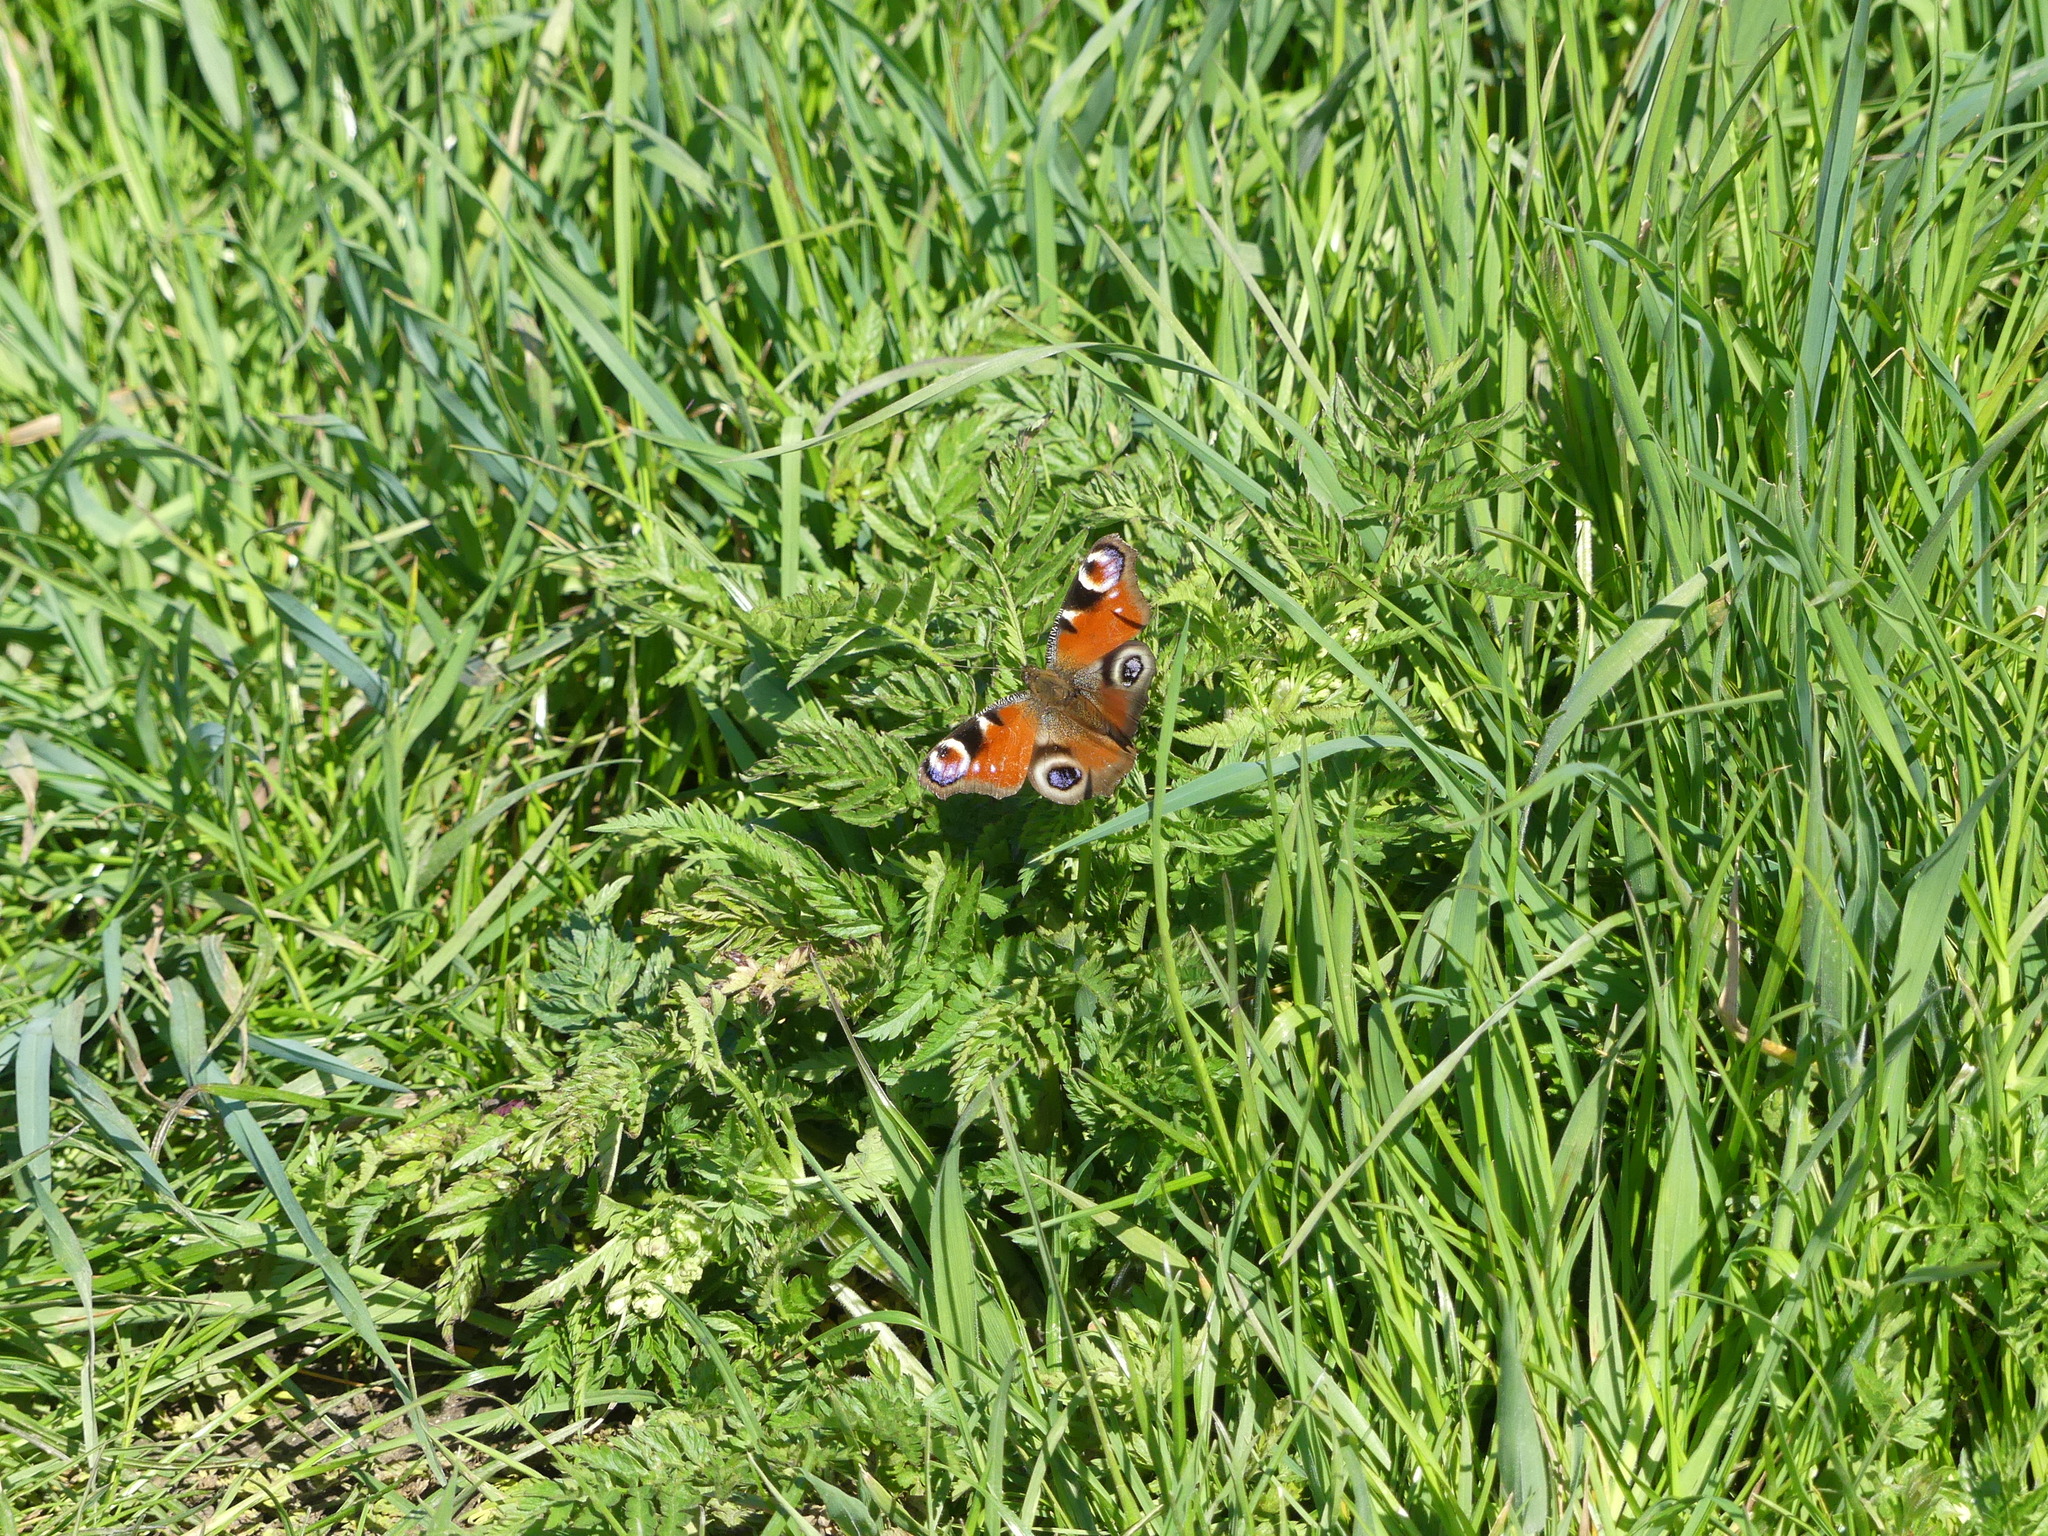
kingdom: Animalia
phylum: Arthropoda
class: Insecta
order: Lepidoptera
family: Nymphalidae
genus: Aglais
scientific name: Aglais io
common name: Peacock
